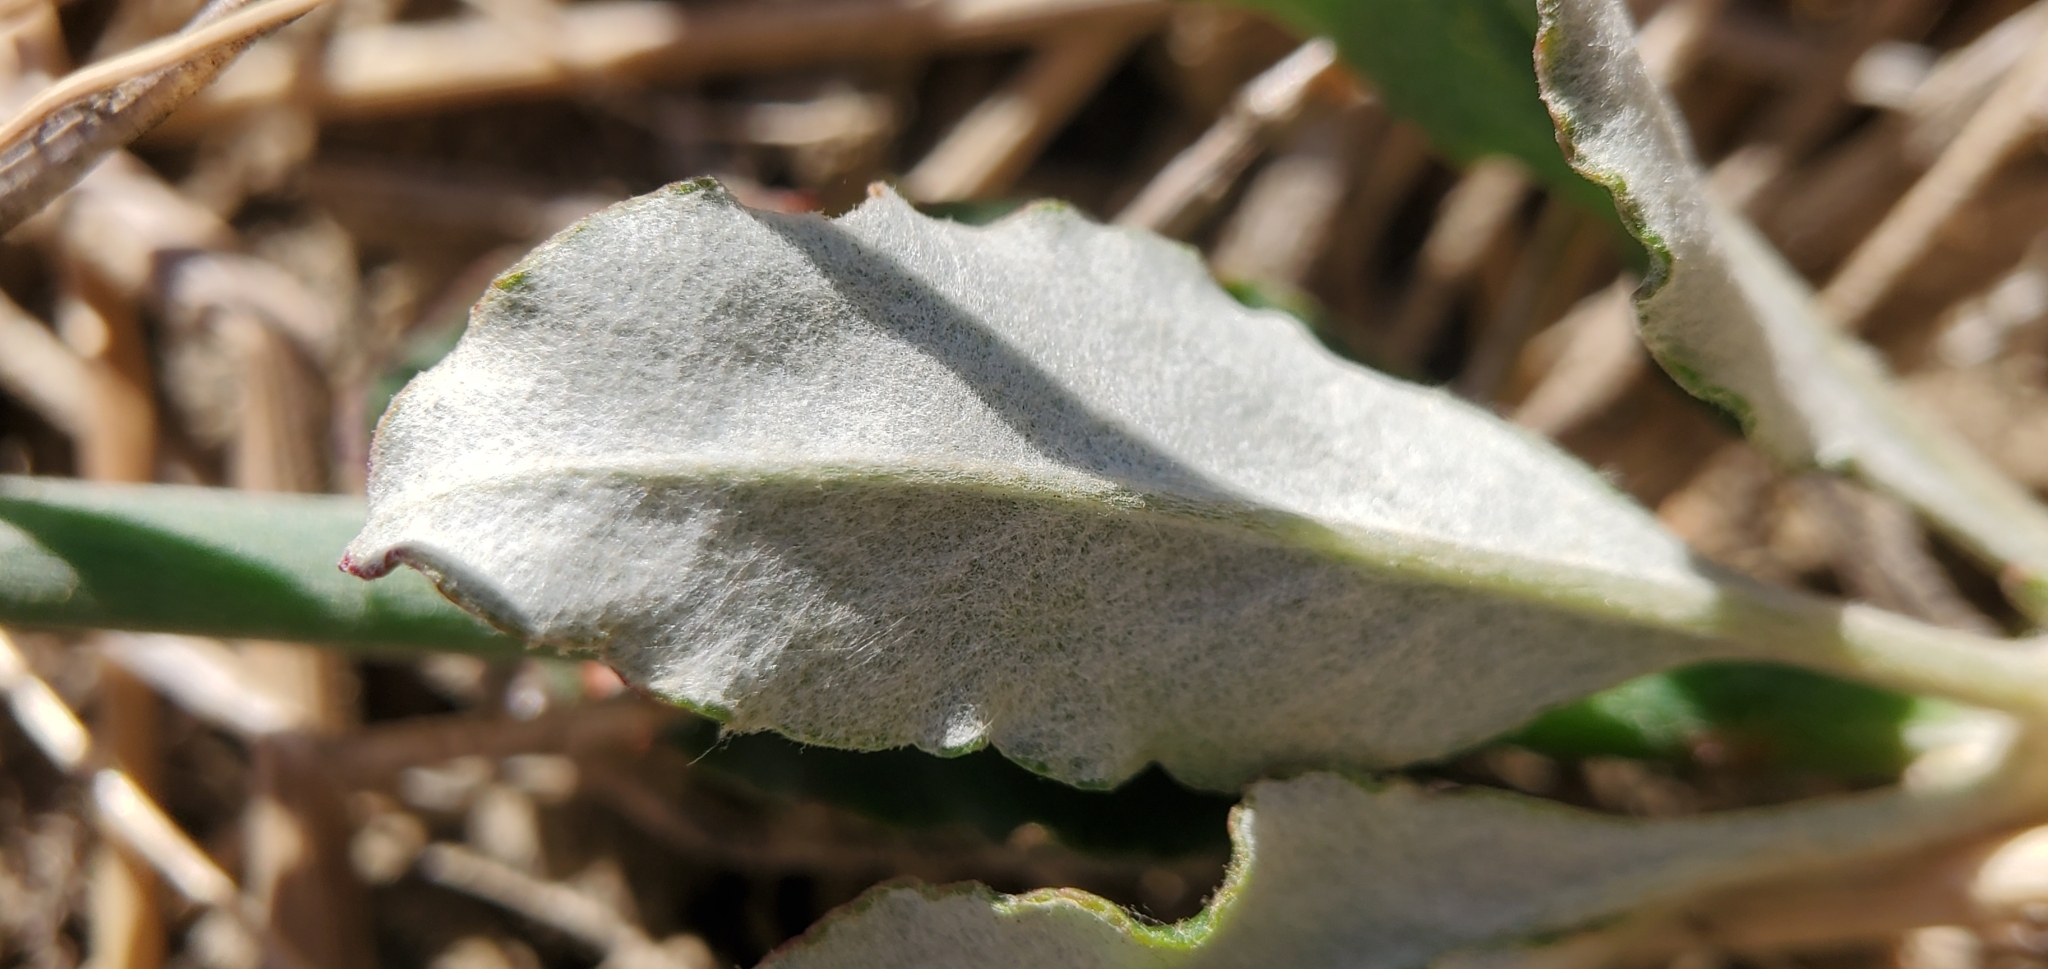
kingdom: Plantae
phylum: Tracheophyta
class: Magnoliopsida
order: Caryophyllales
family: Polygonaceae
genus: Eriogonum
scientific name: Eriogonum elongatum
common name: Long-stem wild buckwheat
